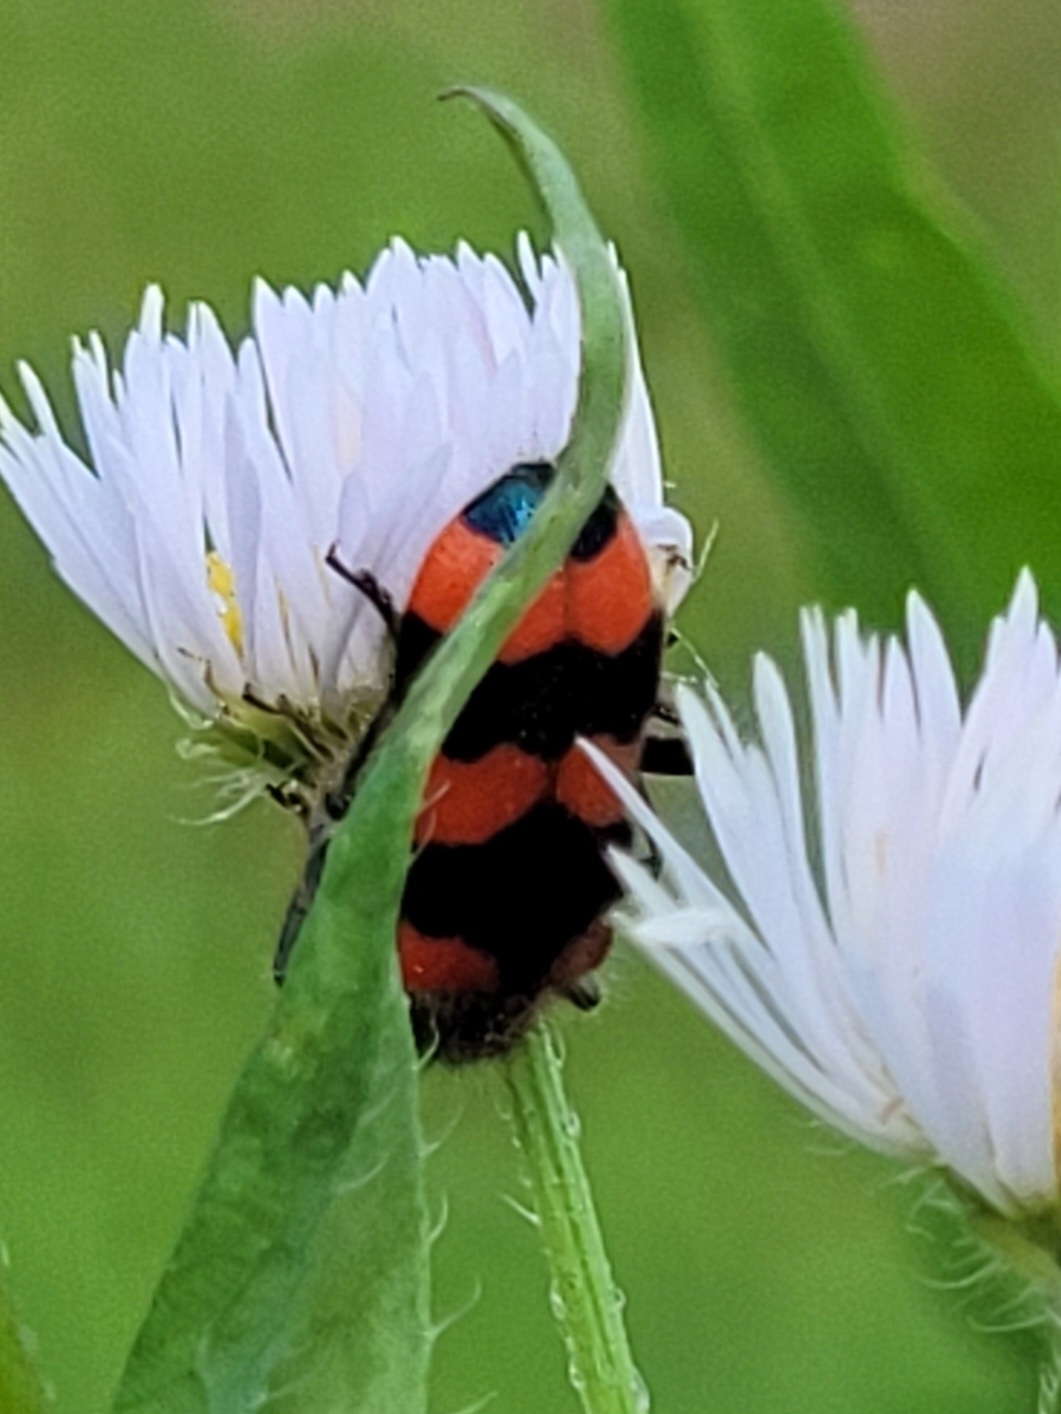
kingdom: Animalia
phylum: Arthropoda
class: Insecta
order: Coleoptera
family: Cleridae
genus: Trichodes
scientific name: Trichodes apiarius
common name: Bee-eating beetle
